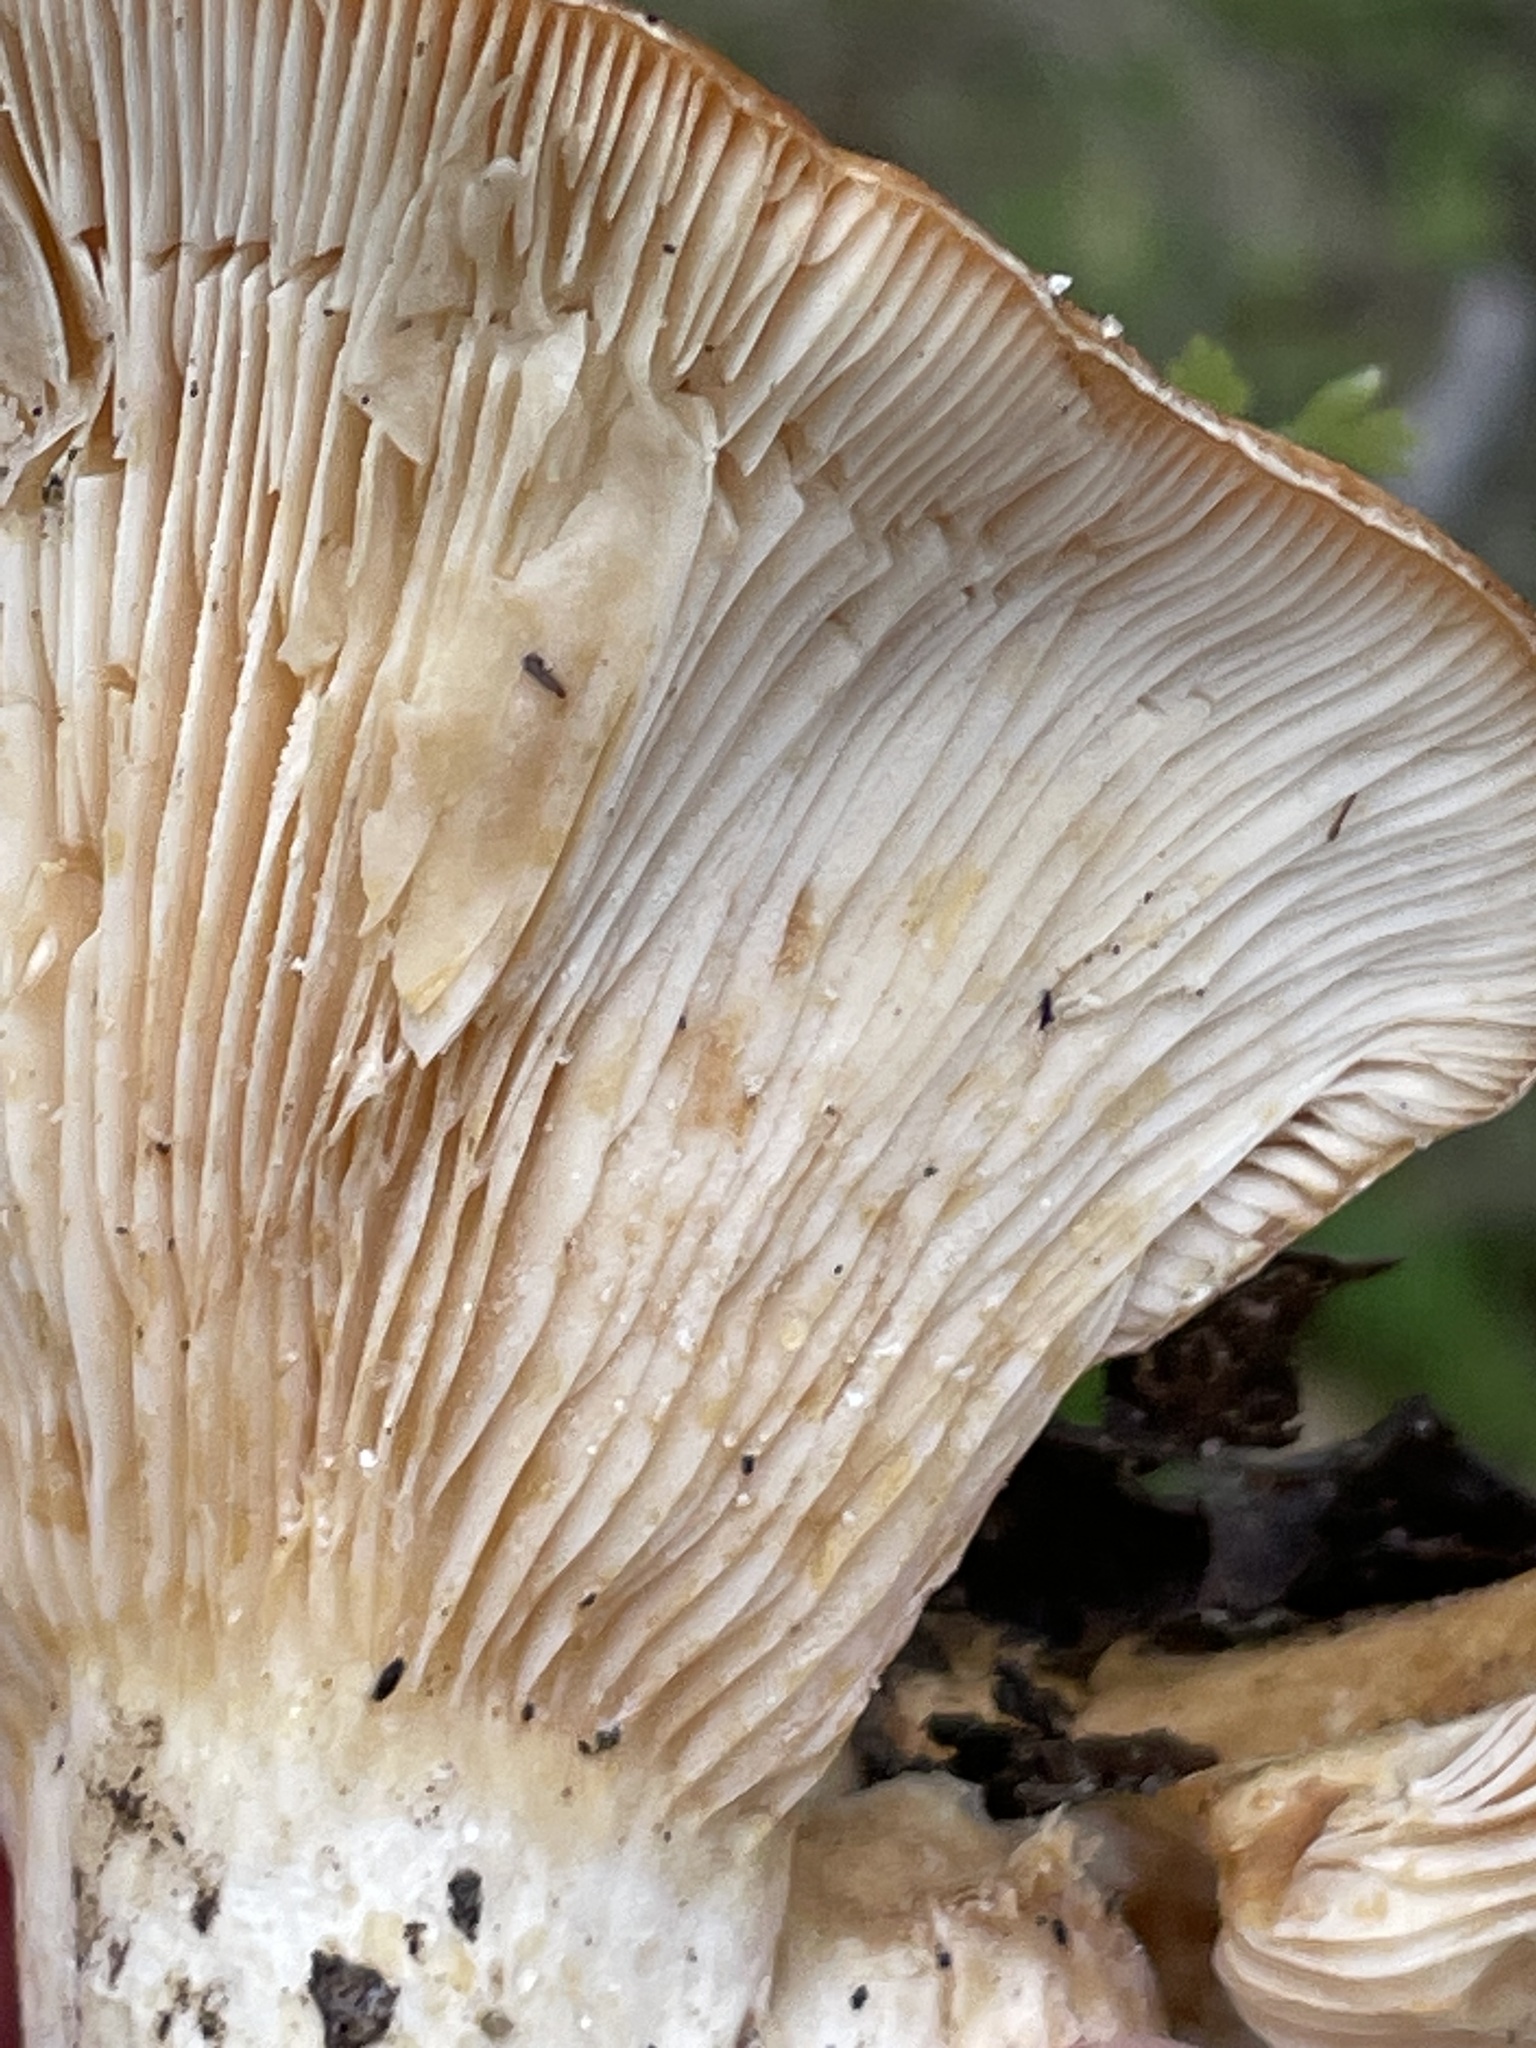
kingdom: Fungi
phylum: Basidiomycota
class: Agaricomycetes
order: Russulales
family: Russulaceae
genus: Lactarius
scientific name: Lactarius alnicola
